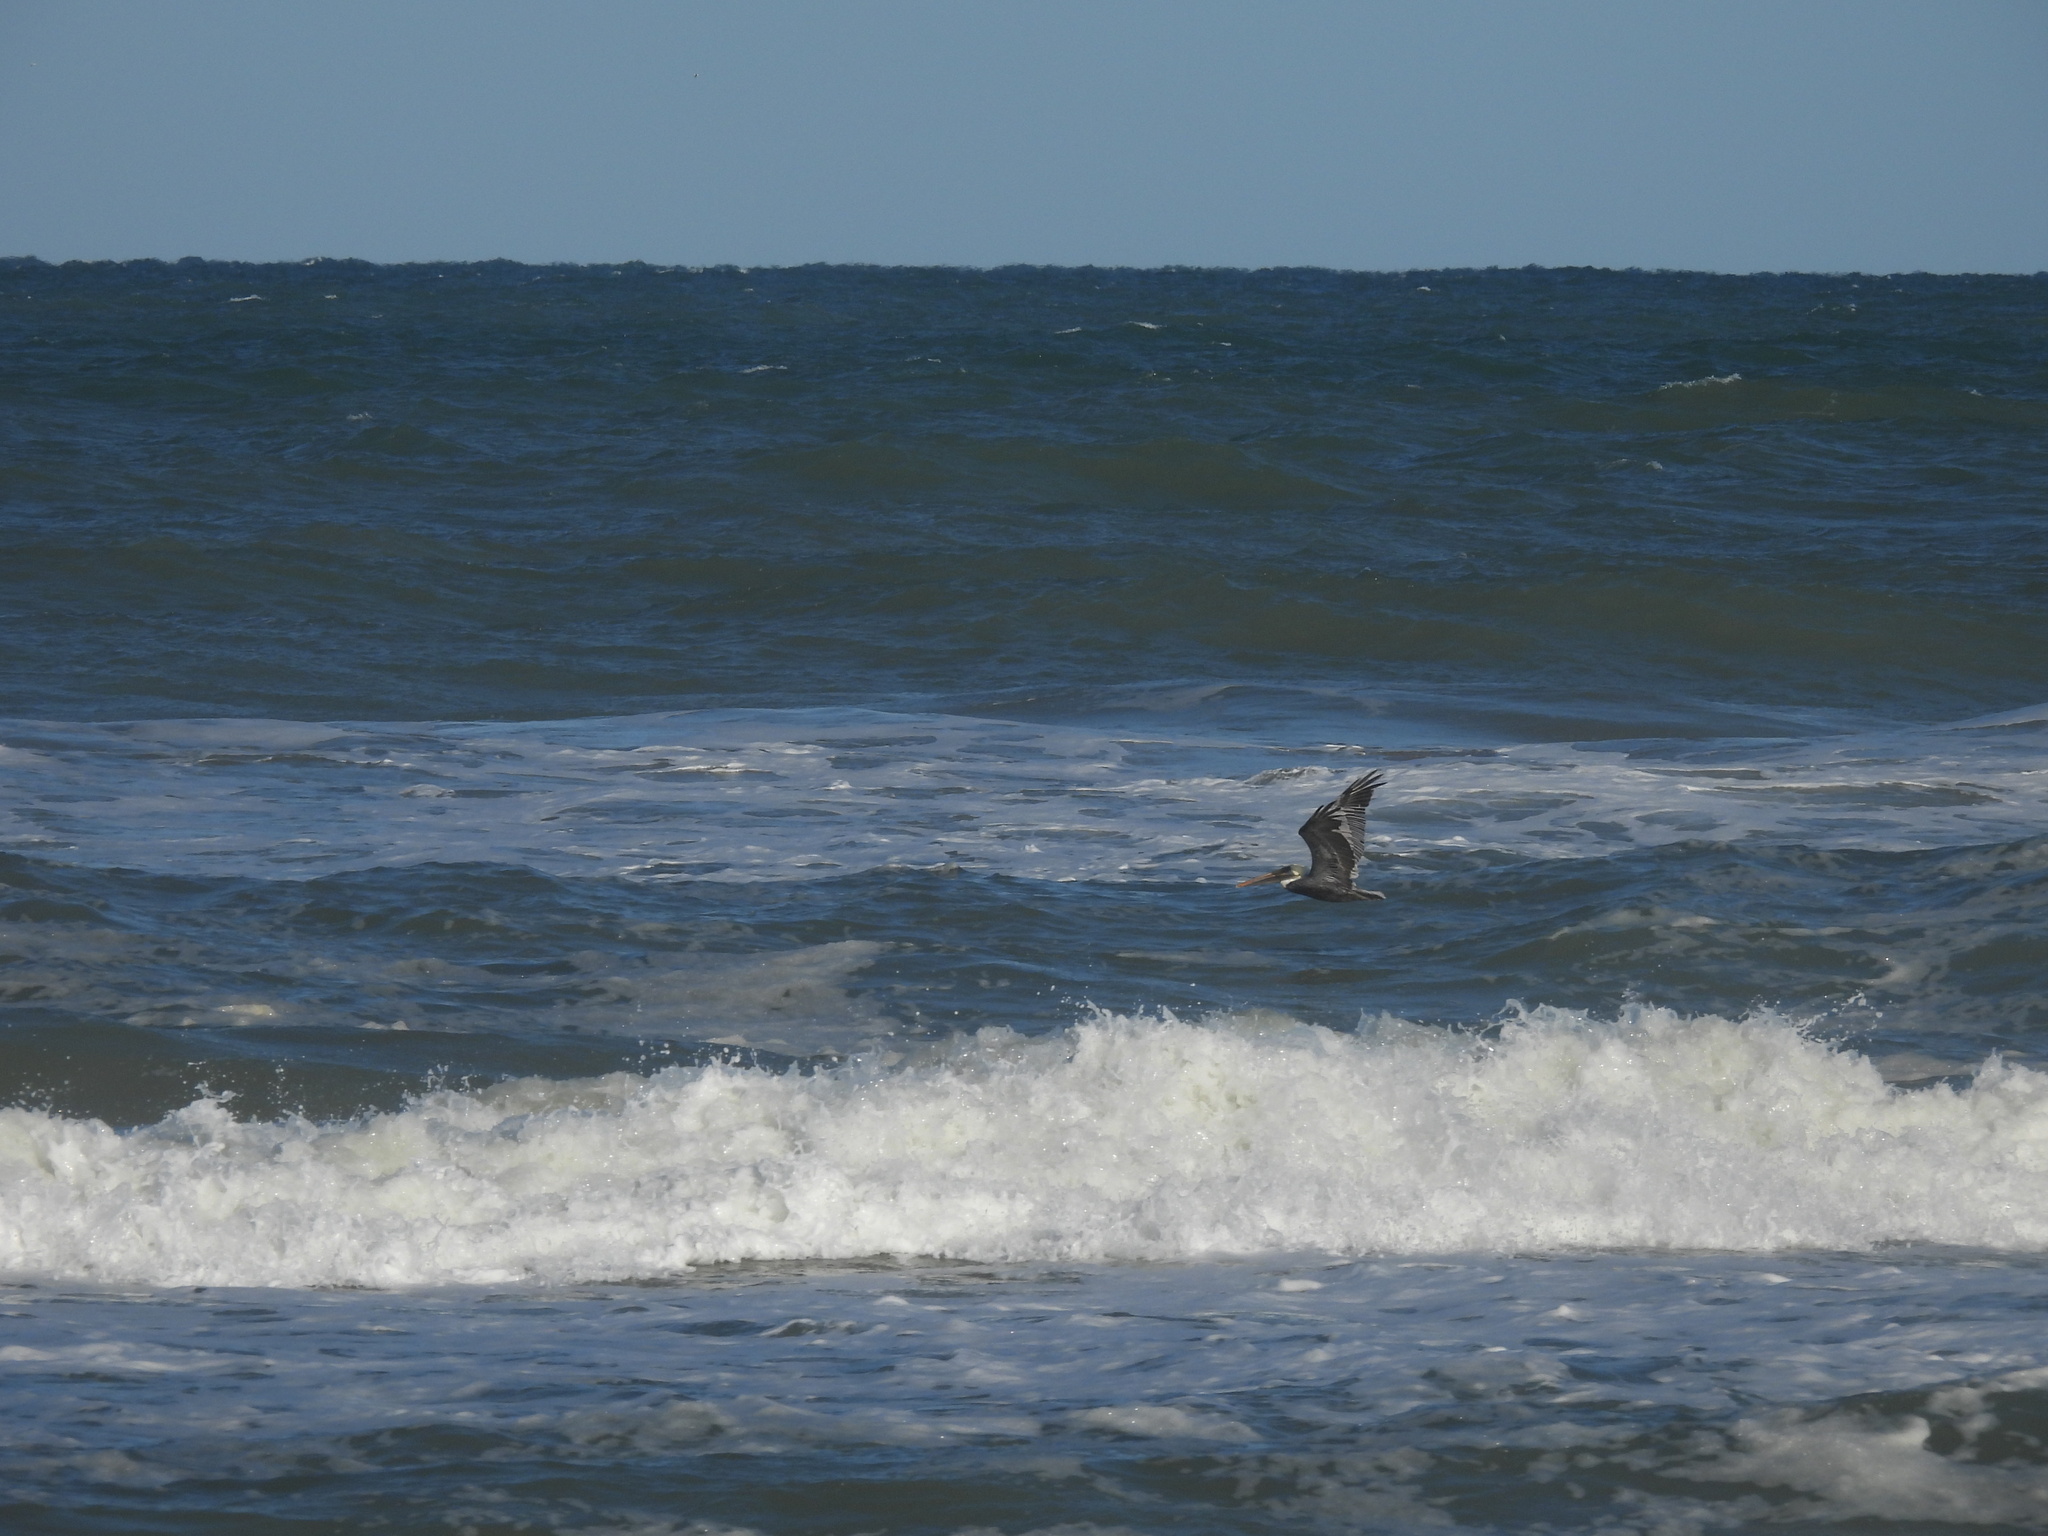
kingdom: Animalia
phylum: Chordata
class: Aves
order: Pelecaniformes
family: Pelecanidae
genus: Pelecanus
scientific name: Pelecanus occidentalis
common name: Brown pelican
